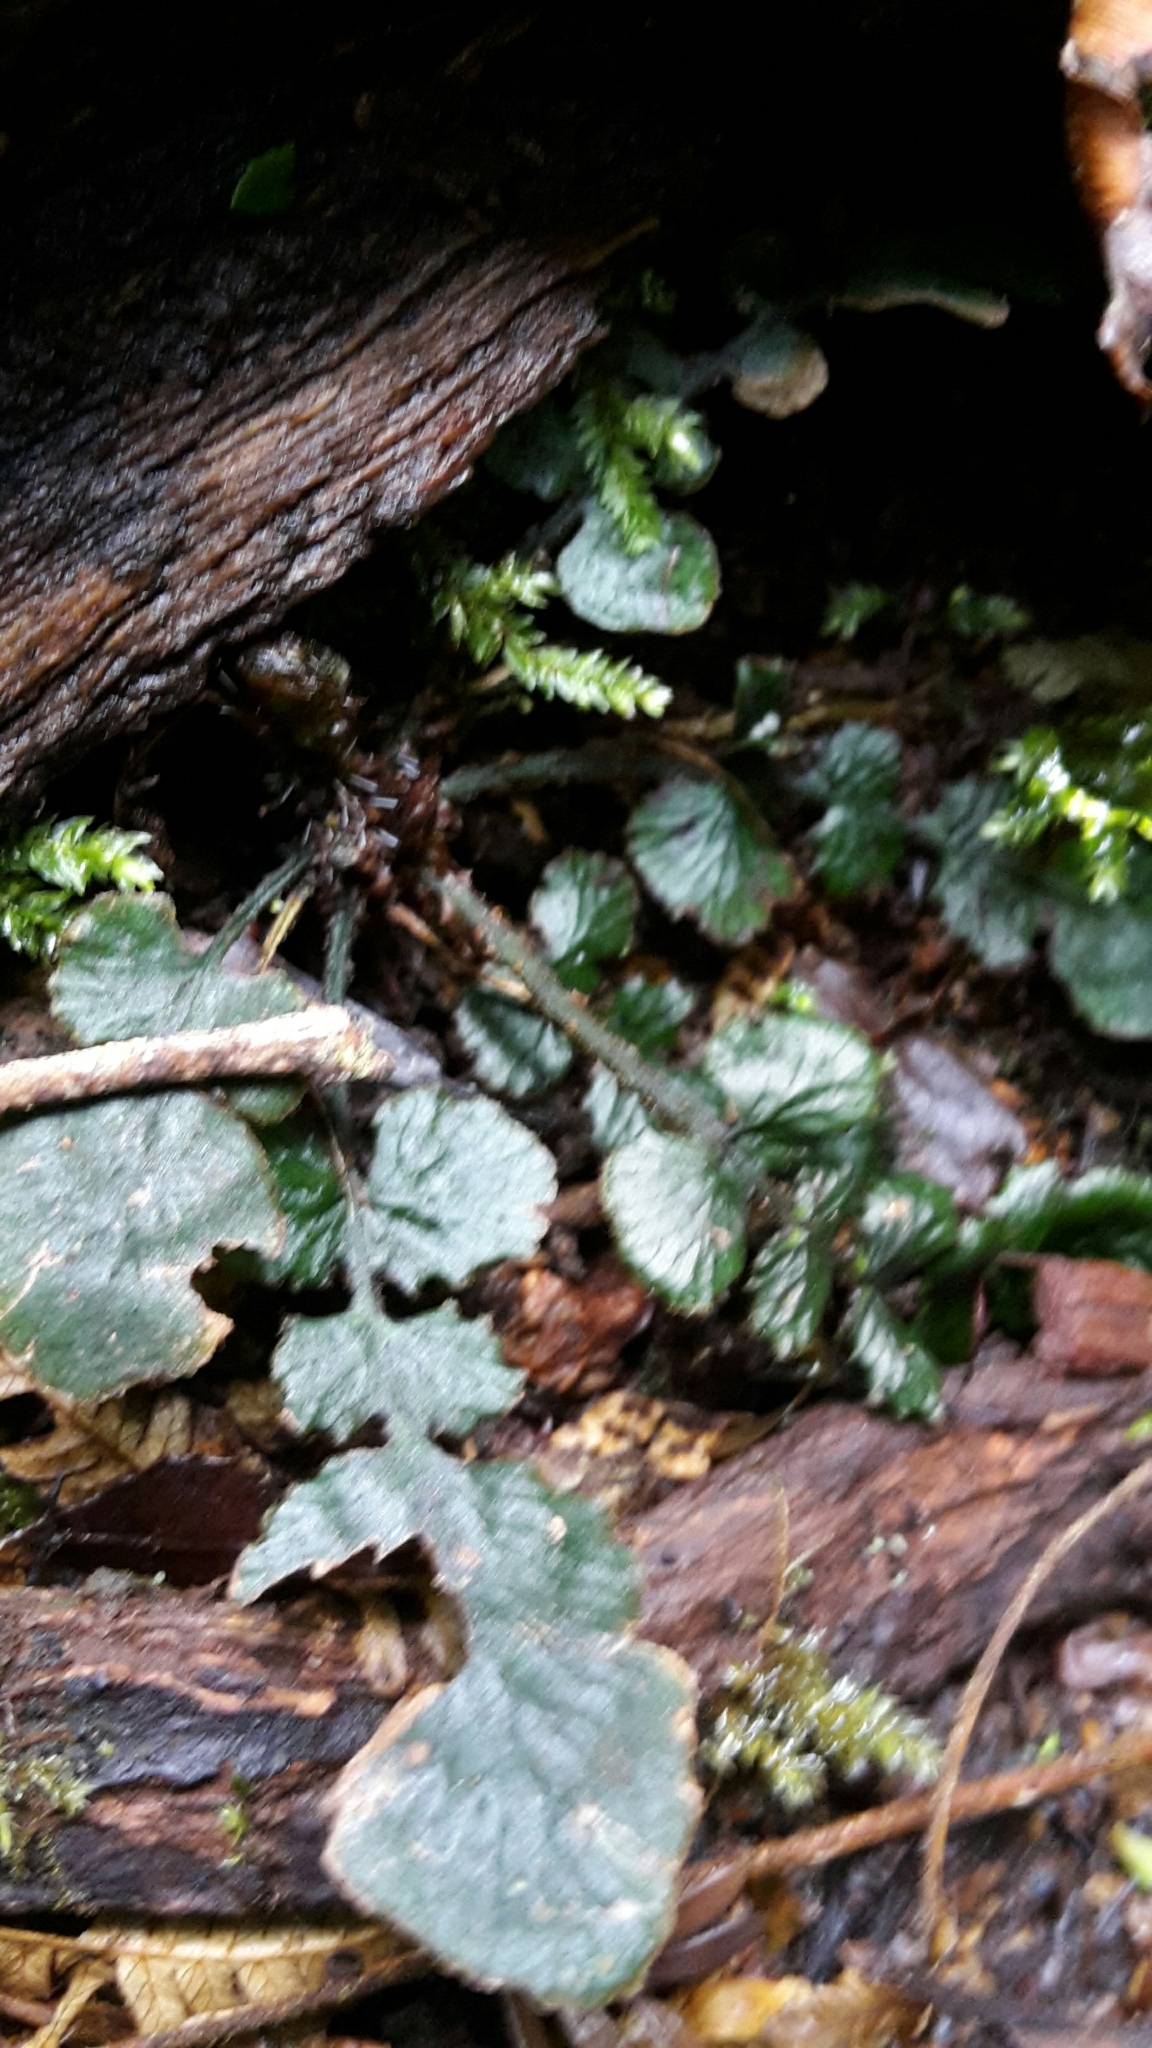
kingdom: Plantae
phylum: Tracheophyta
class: Polypodiopsida
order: Polypodiales
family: Blechnaceae
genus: Cranfillia
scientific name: Cranfillia nigra
